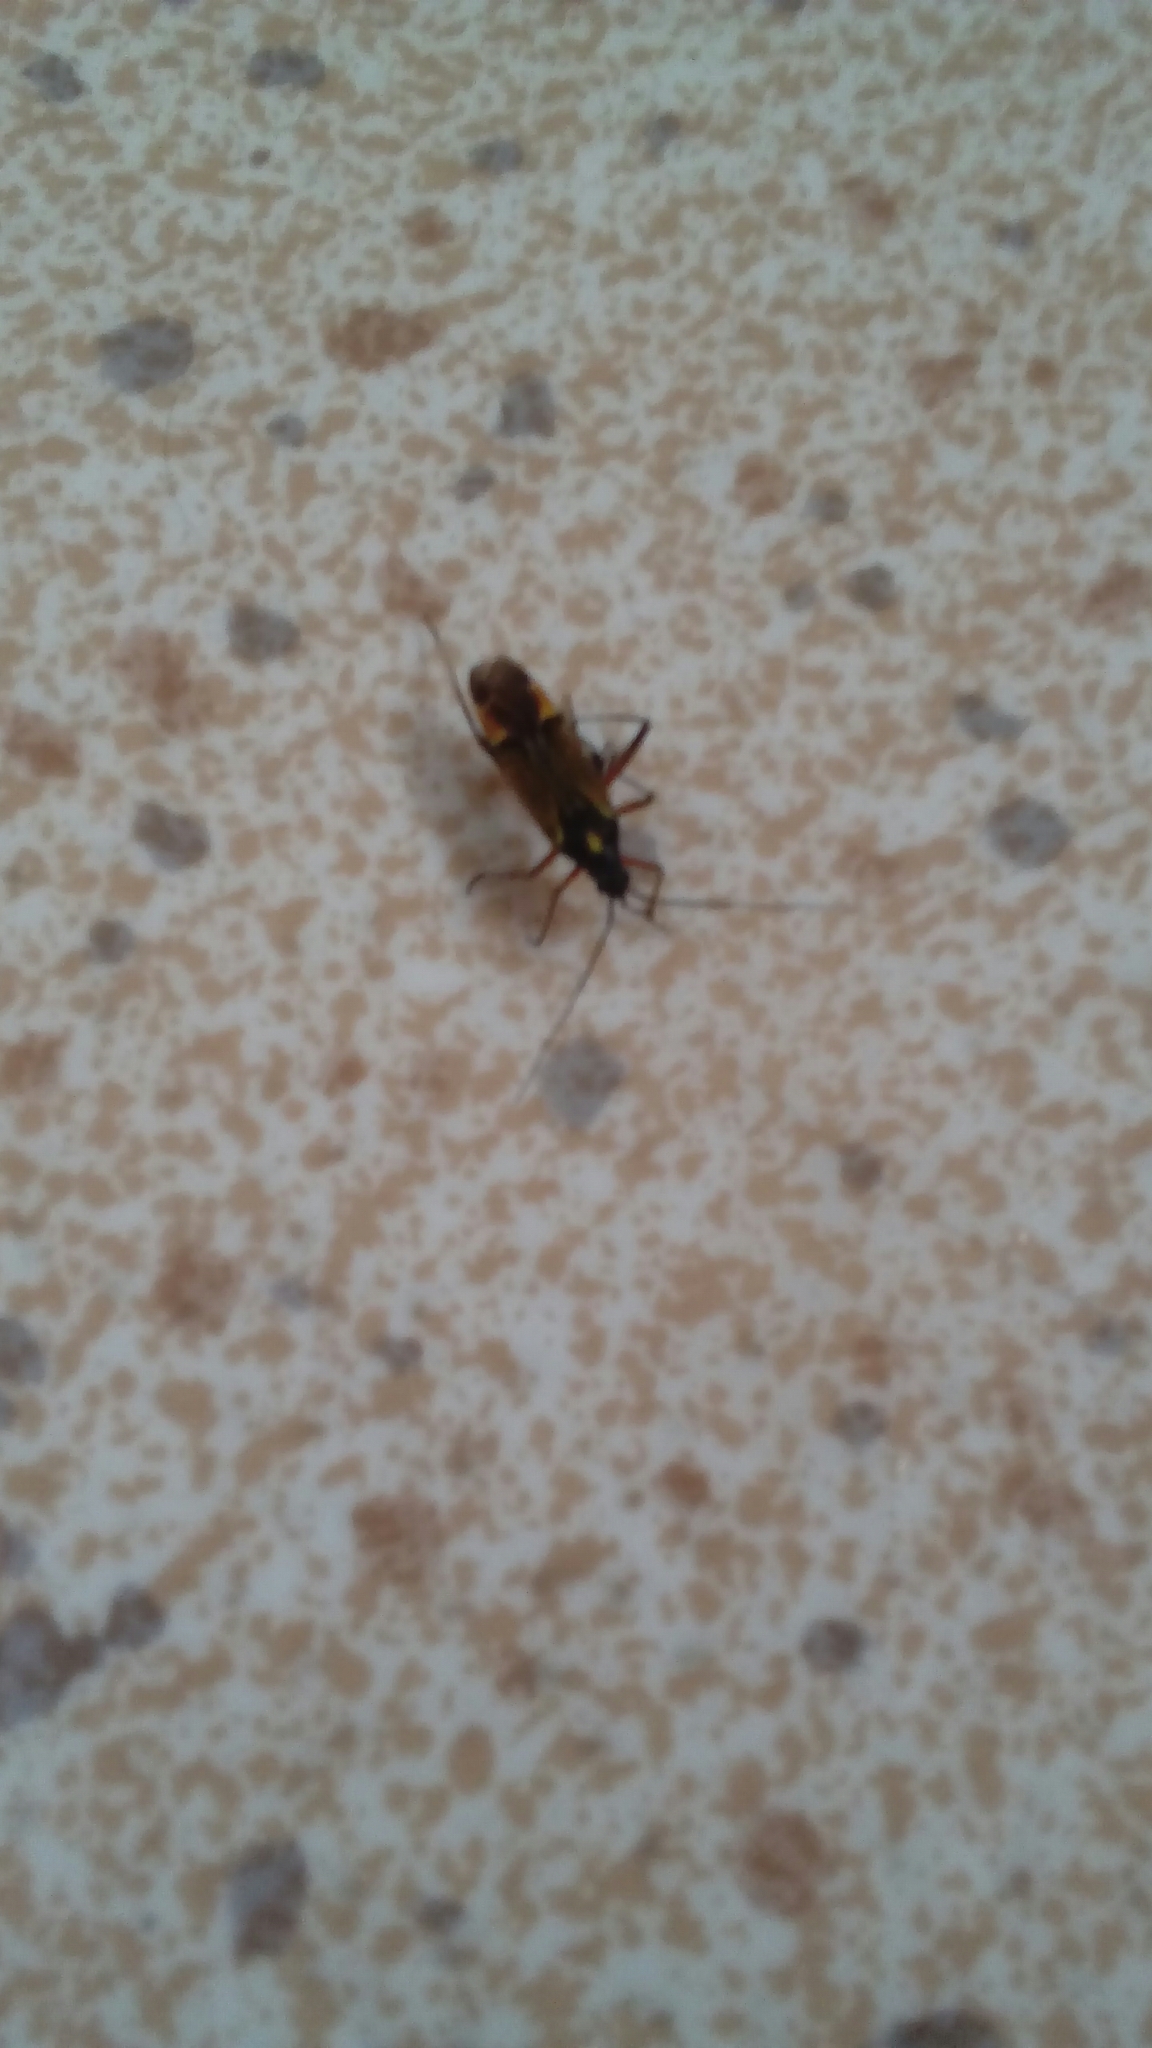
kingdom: Animalia
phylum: Arthropoda
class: Insecta
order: Hemiptera
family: Miridae
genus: Miris
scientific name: Miris striatus
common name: Fine streaked bugkin
